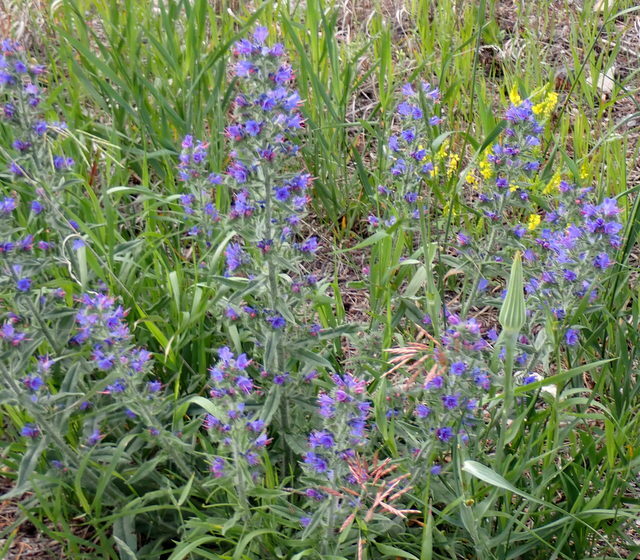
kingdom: Plantae
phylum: Tracheophyta
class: Magnoliopsida
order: Boraginales
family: Boraginaceae
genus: Echium
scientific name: Echium vulgare
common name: Common viper's bugloss
